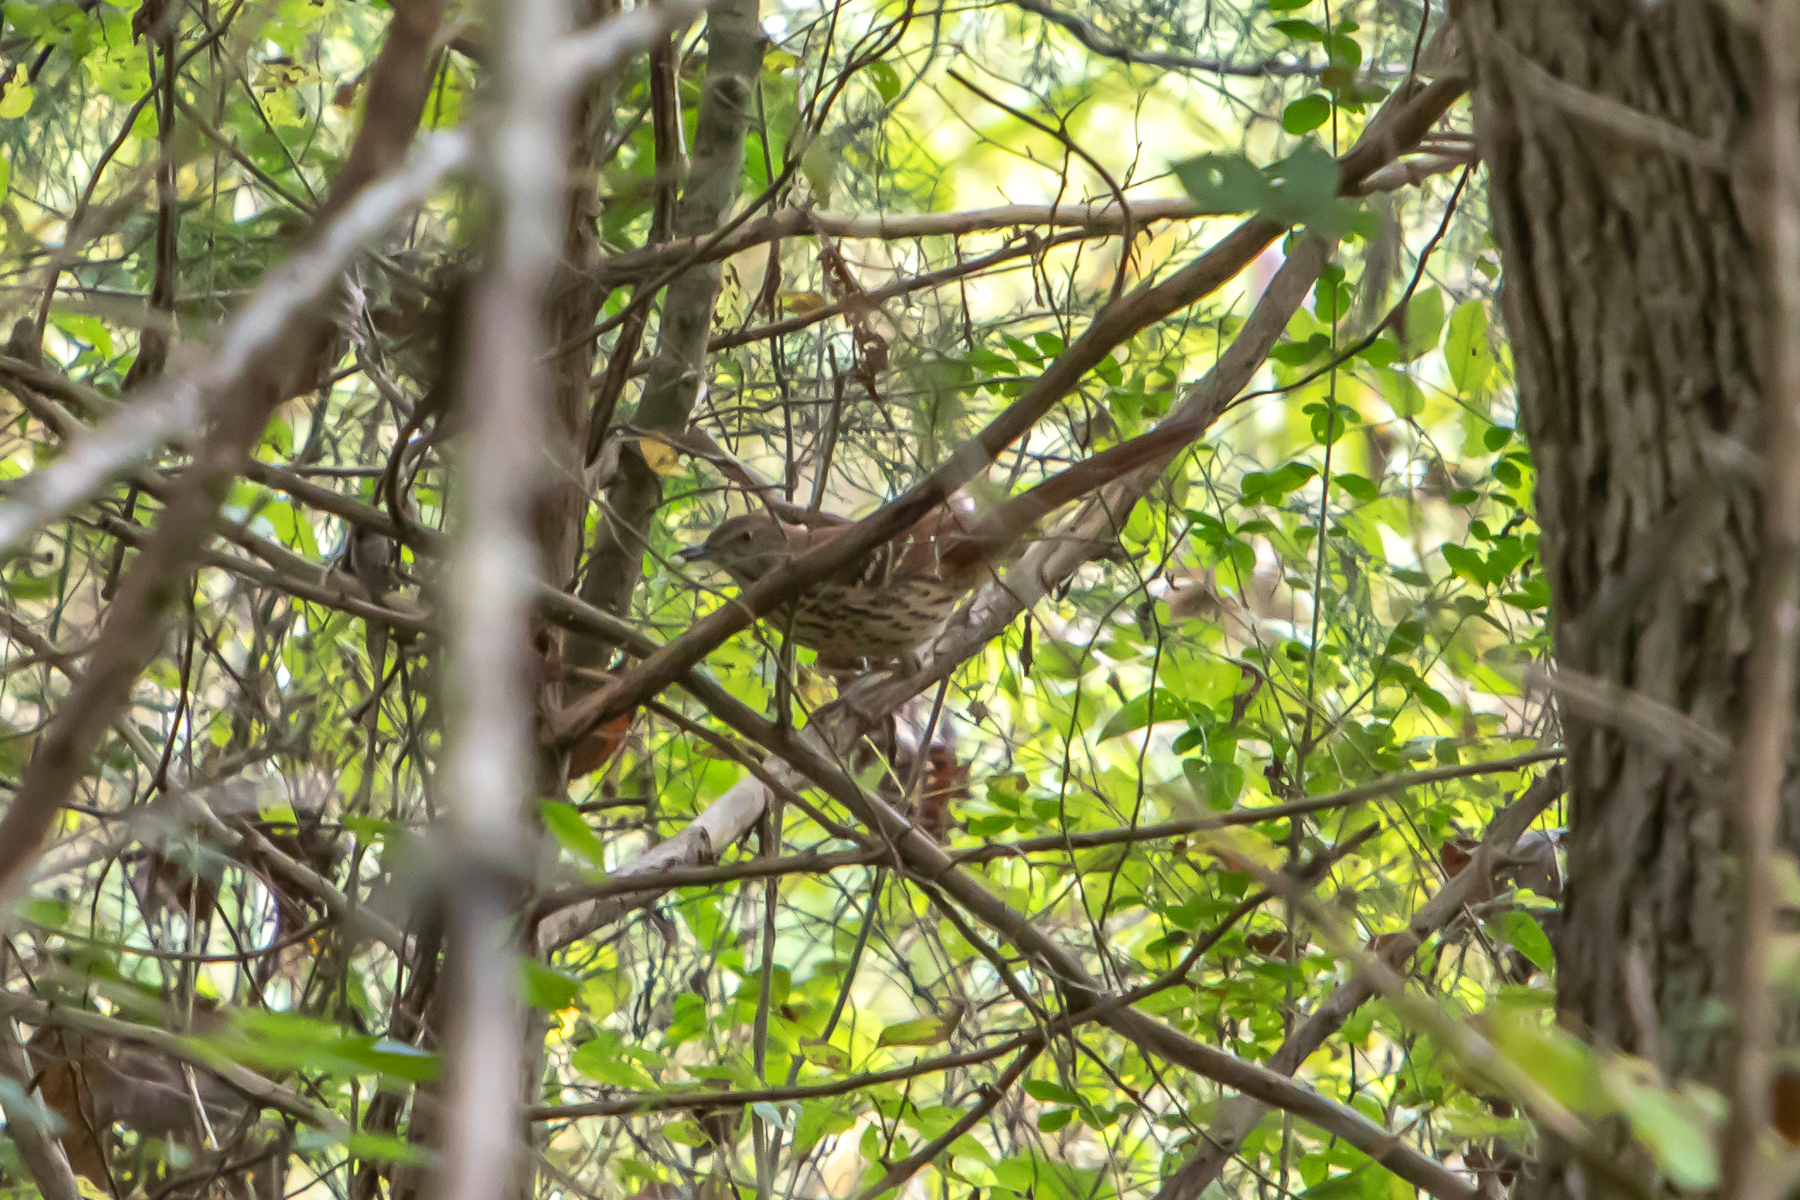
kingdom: Animalia
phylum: Chordata
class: Aves
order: Passeriformes
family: Mimidae
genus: Toxostoma
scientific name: Toxostoma rufum
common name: Brown thrasher
